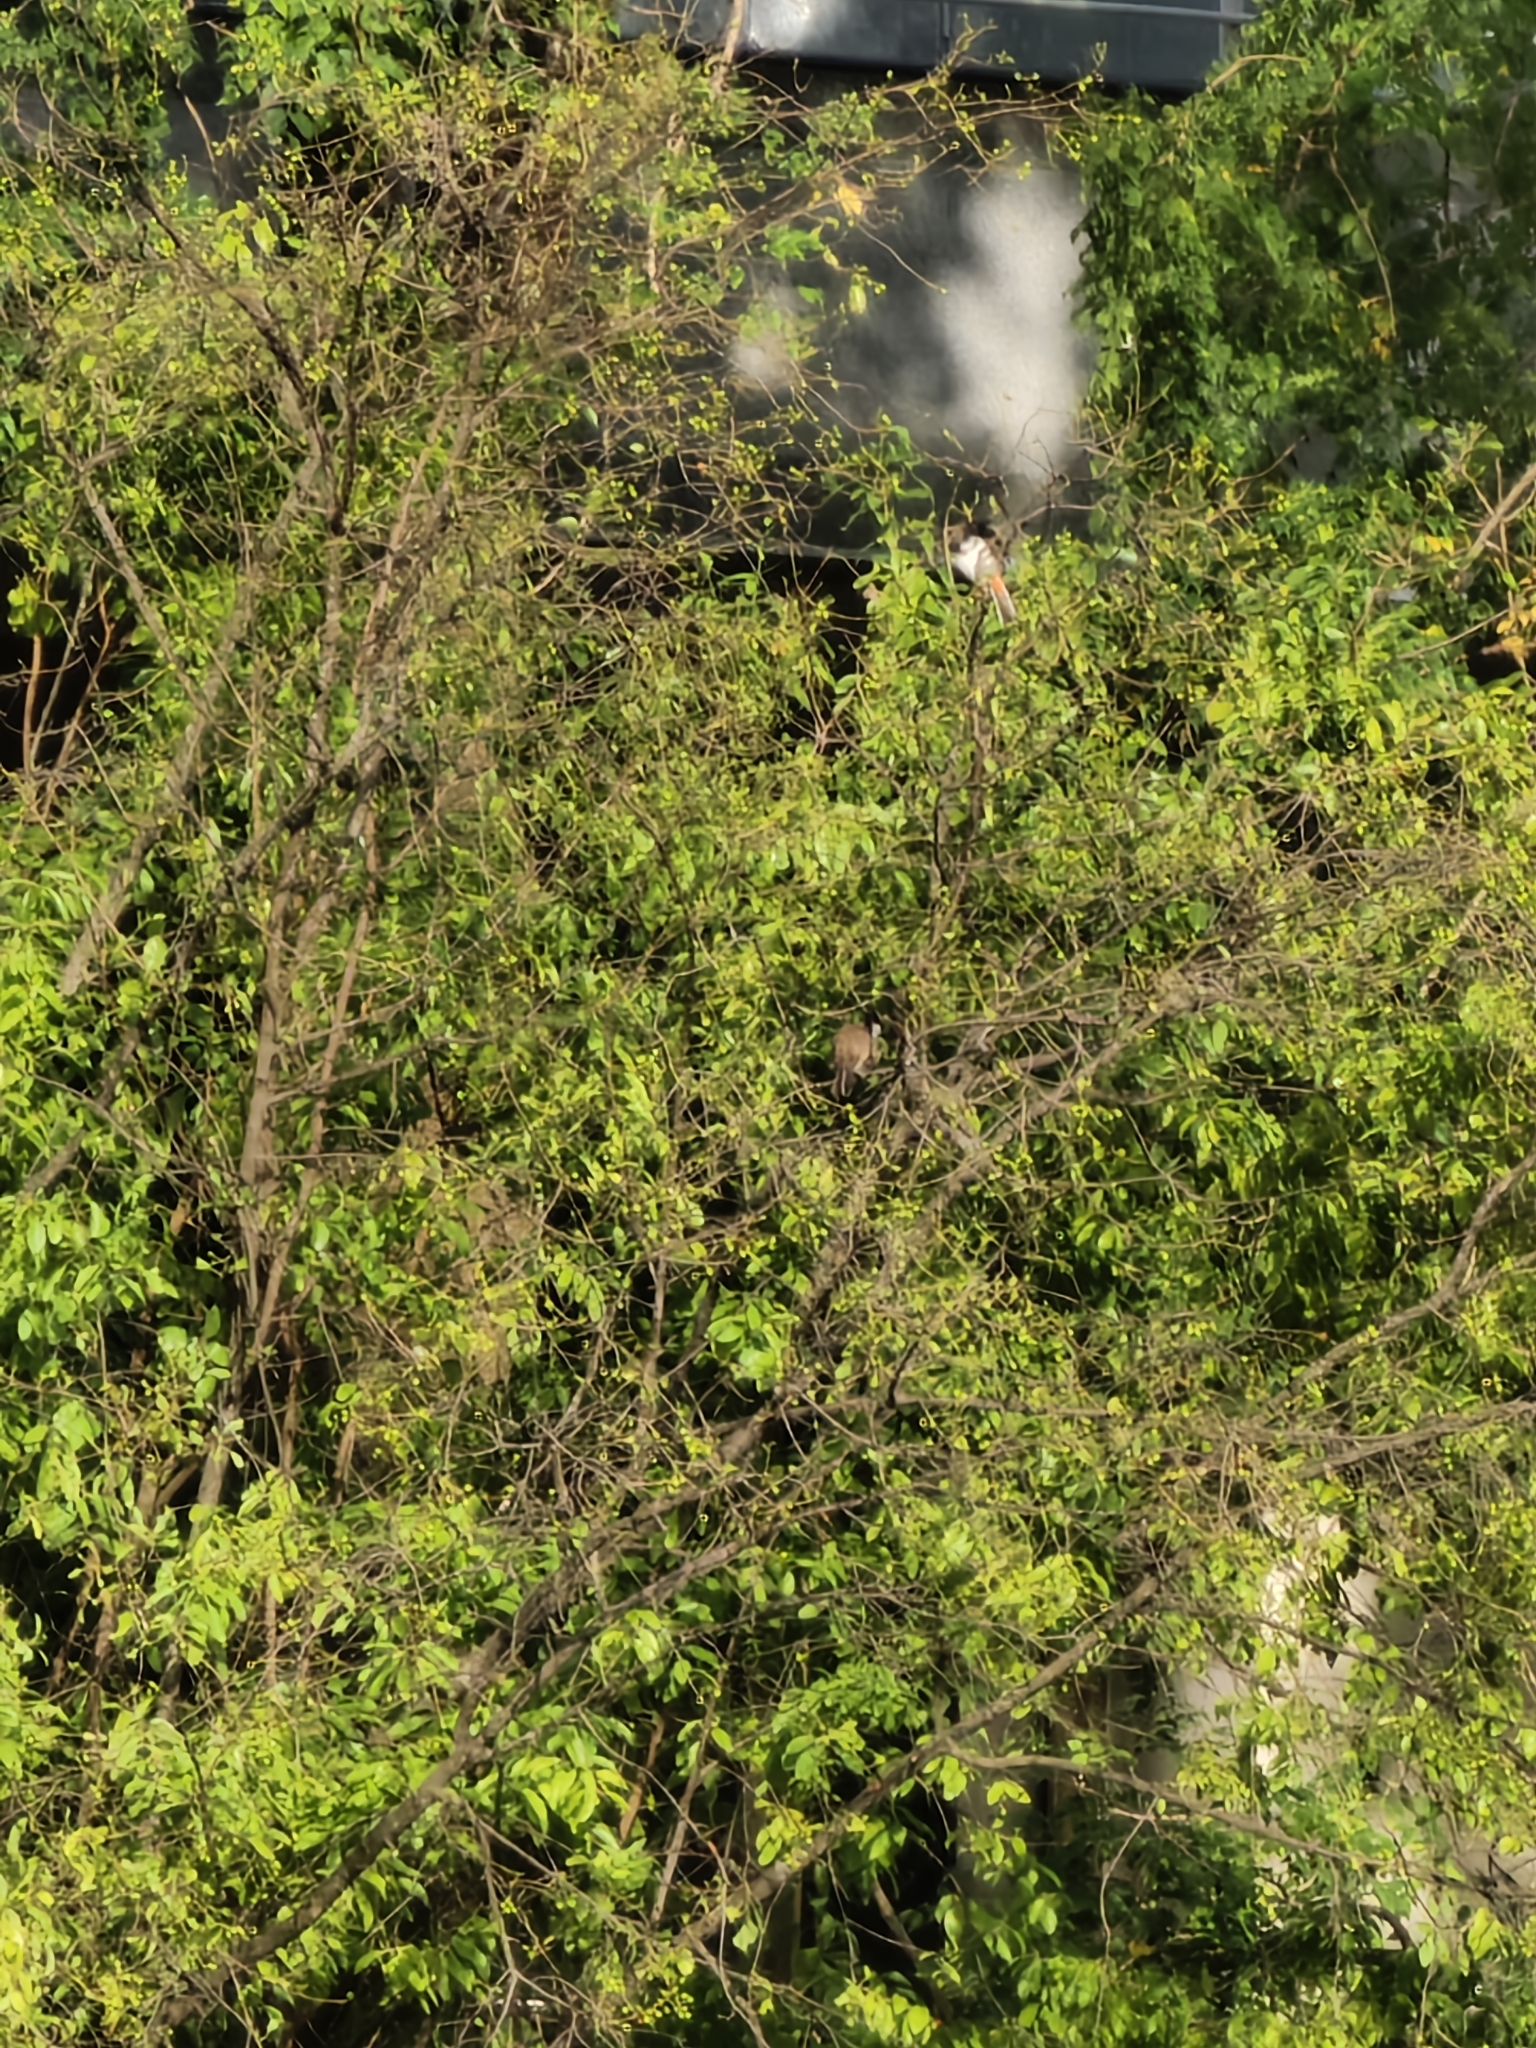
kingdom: Animalia
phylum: Chordata
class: Aves
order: Passeriformes
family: Pycnonotidae
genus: Pycnonotus
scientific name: Pycnonotus jocosus
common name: Red-whiskered bulbul
